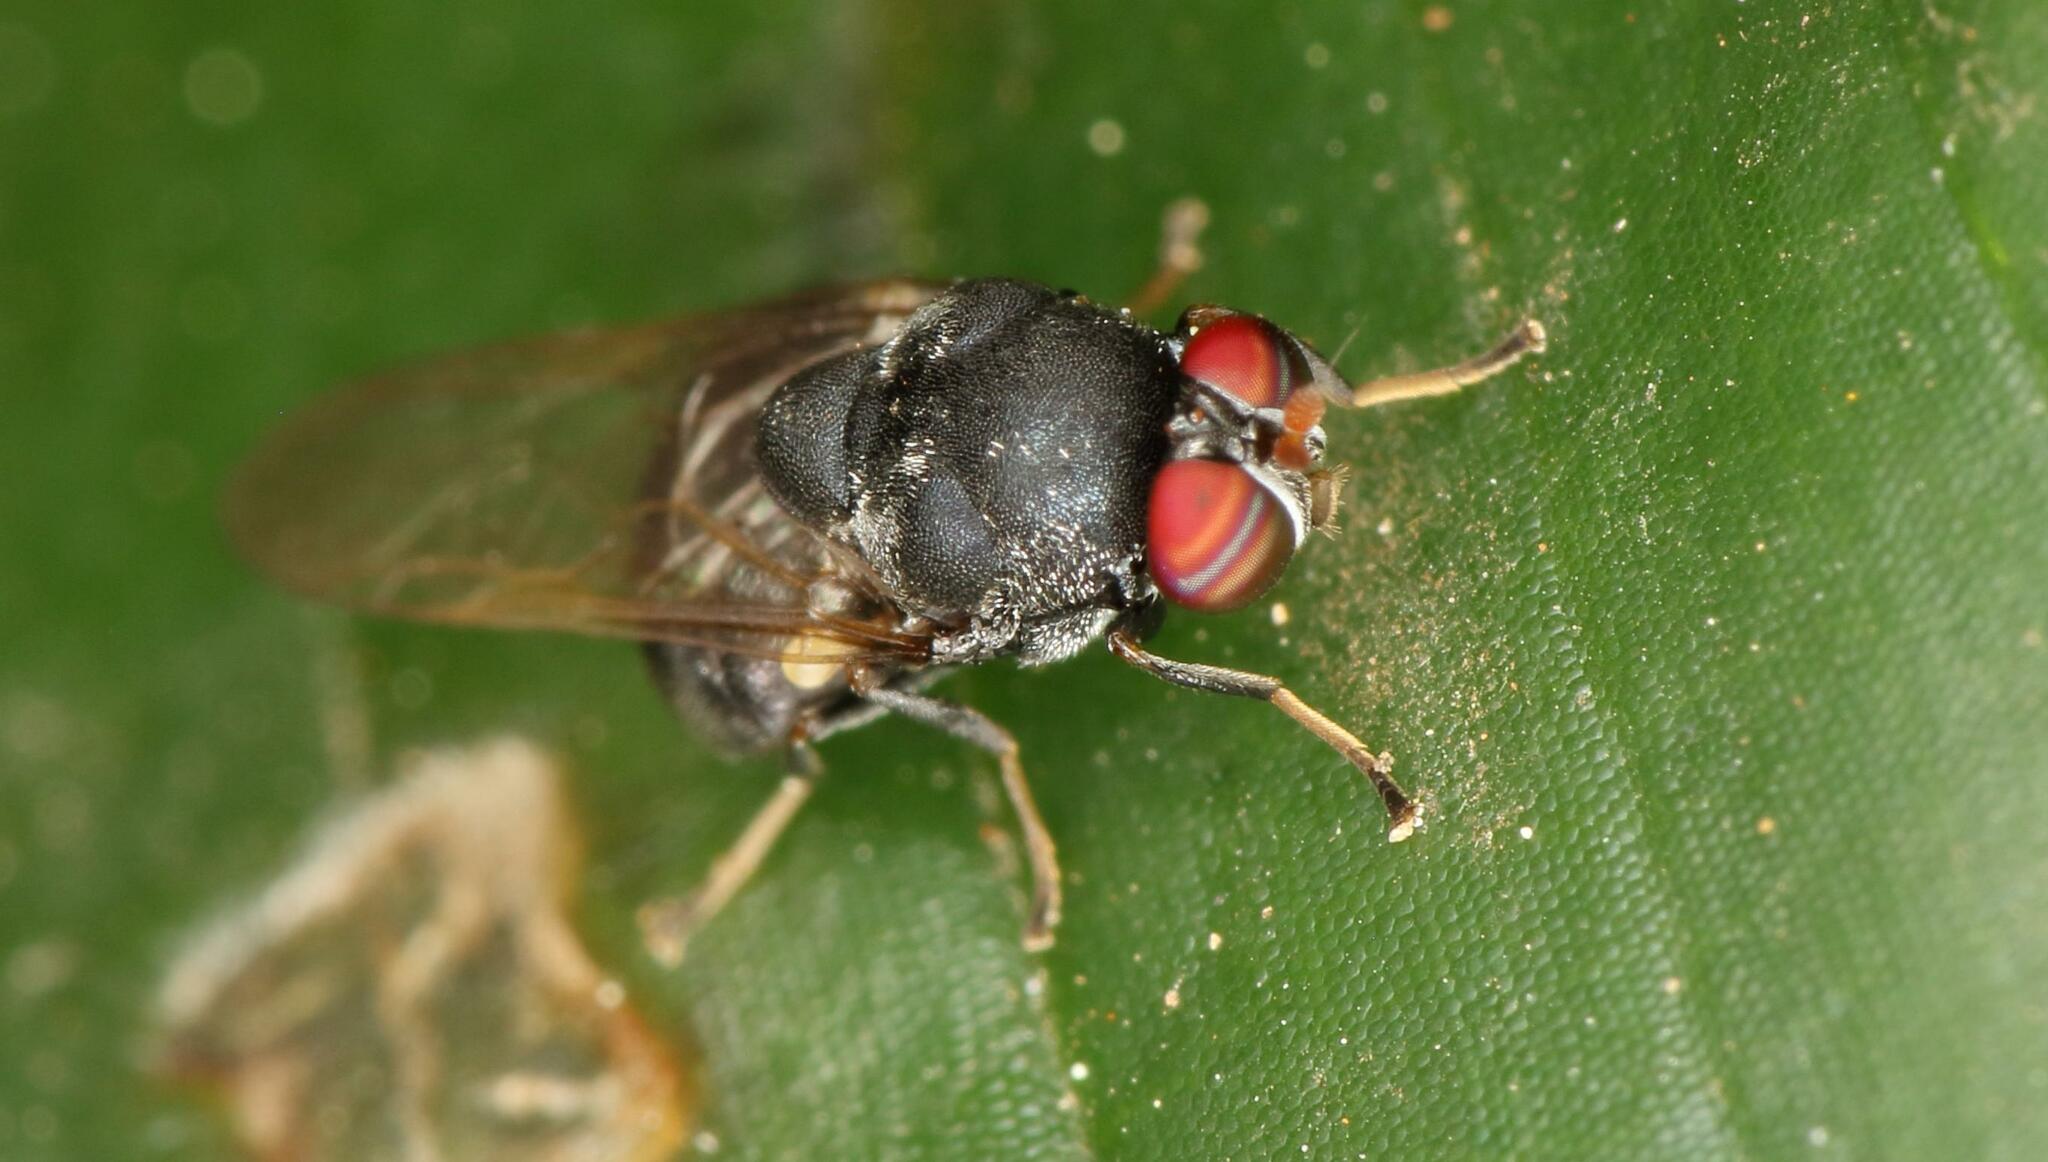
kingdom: Animalia
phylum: Arthropoda
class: Insecta
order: Diptera
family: Stratiomyidae
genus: Ageiton
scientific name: Ageiton ater
